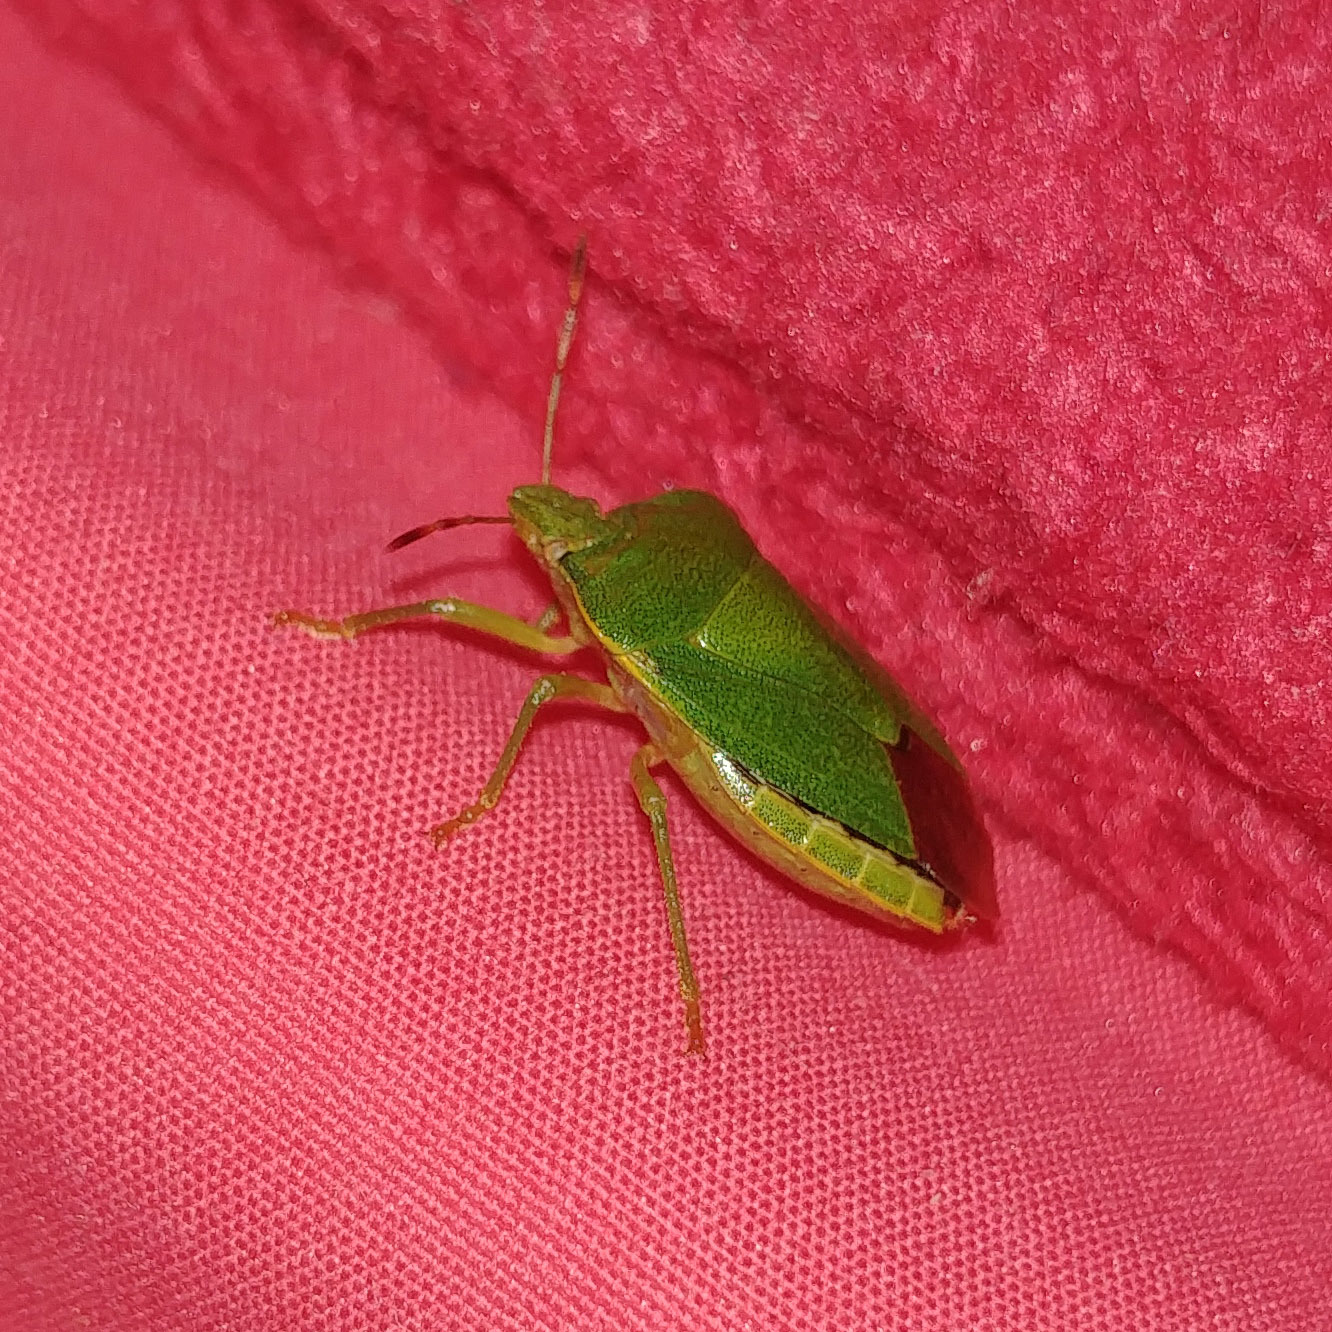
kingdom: Animalia
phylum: Arthropoda
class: Insecta
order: Hemiptera
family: Pentatomidae
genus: Palomena
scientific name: Palomena prasina
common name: Green shieldbug
